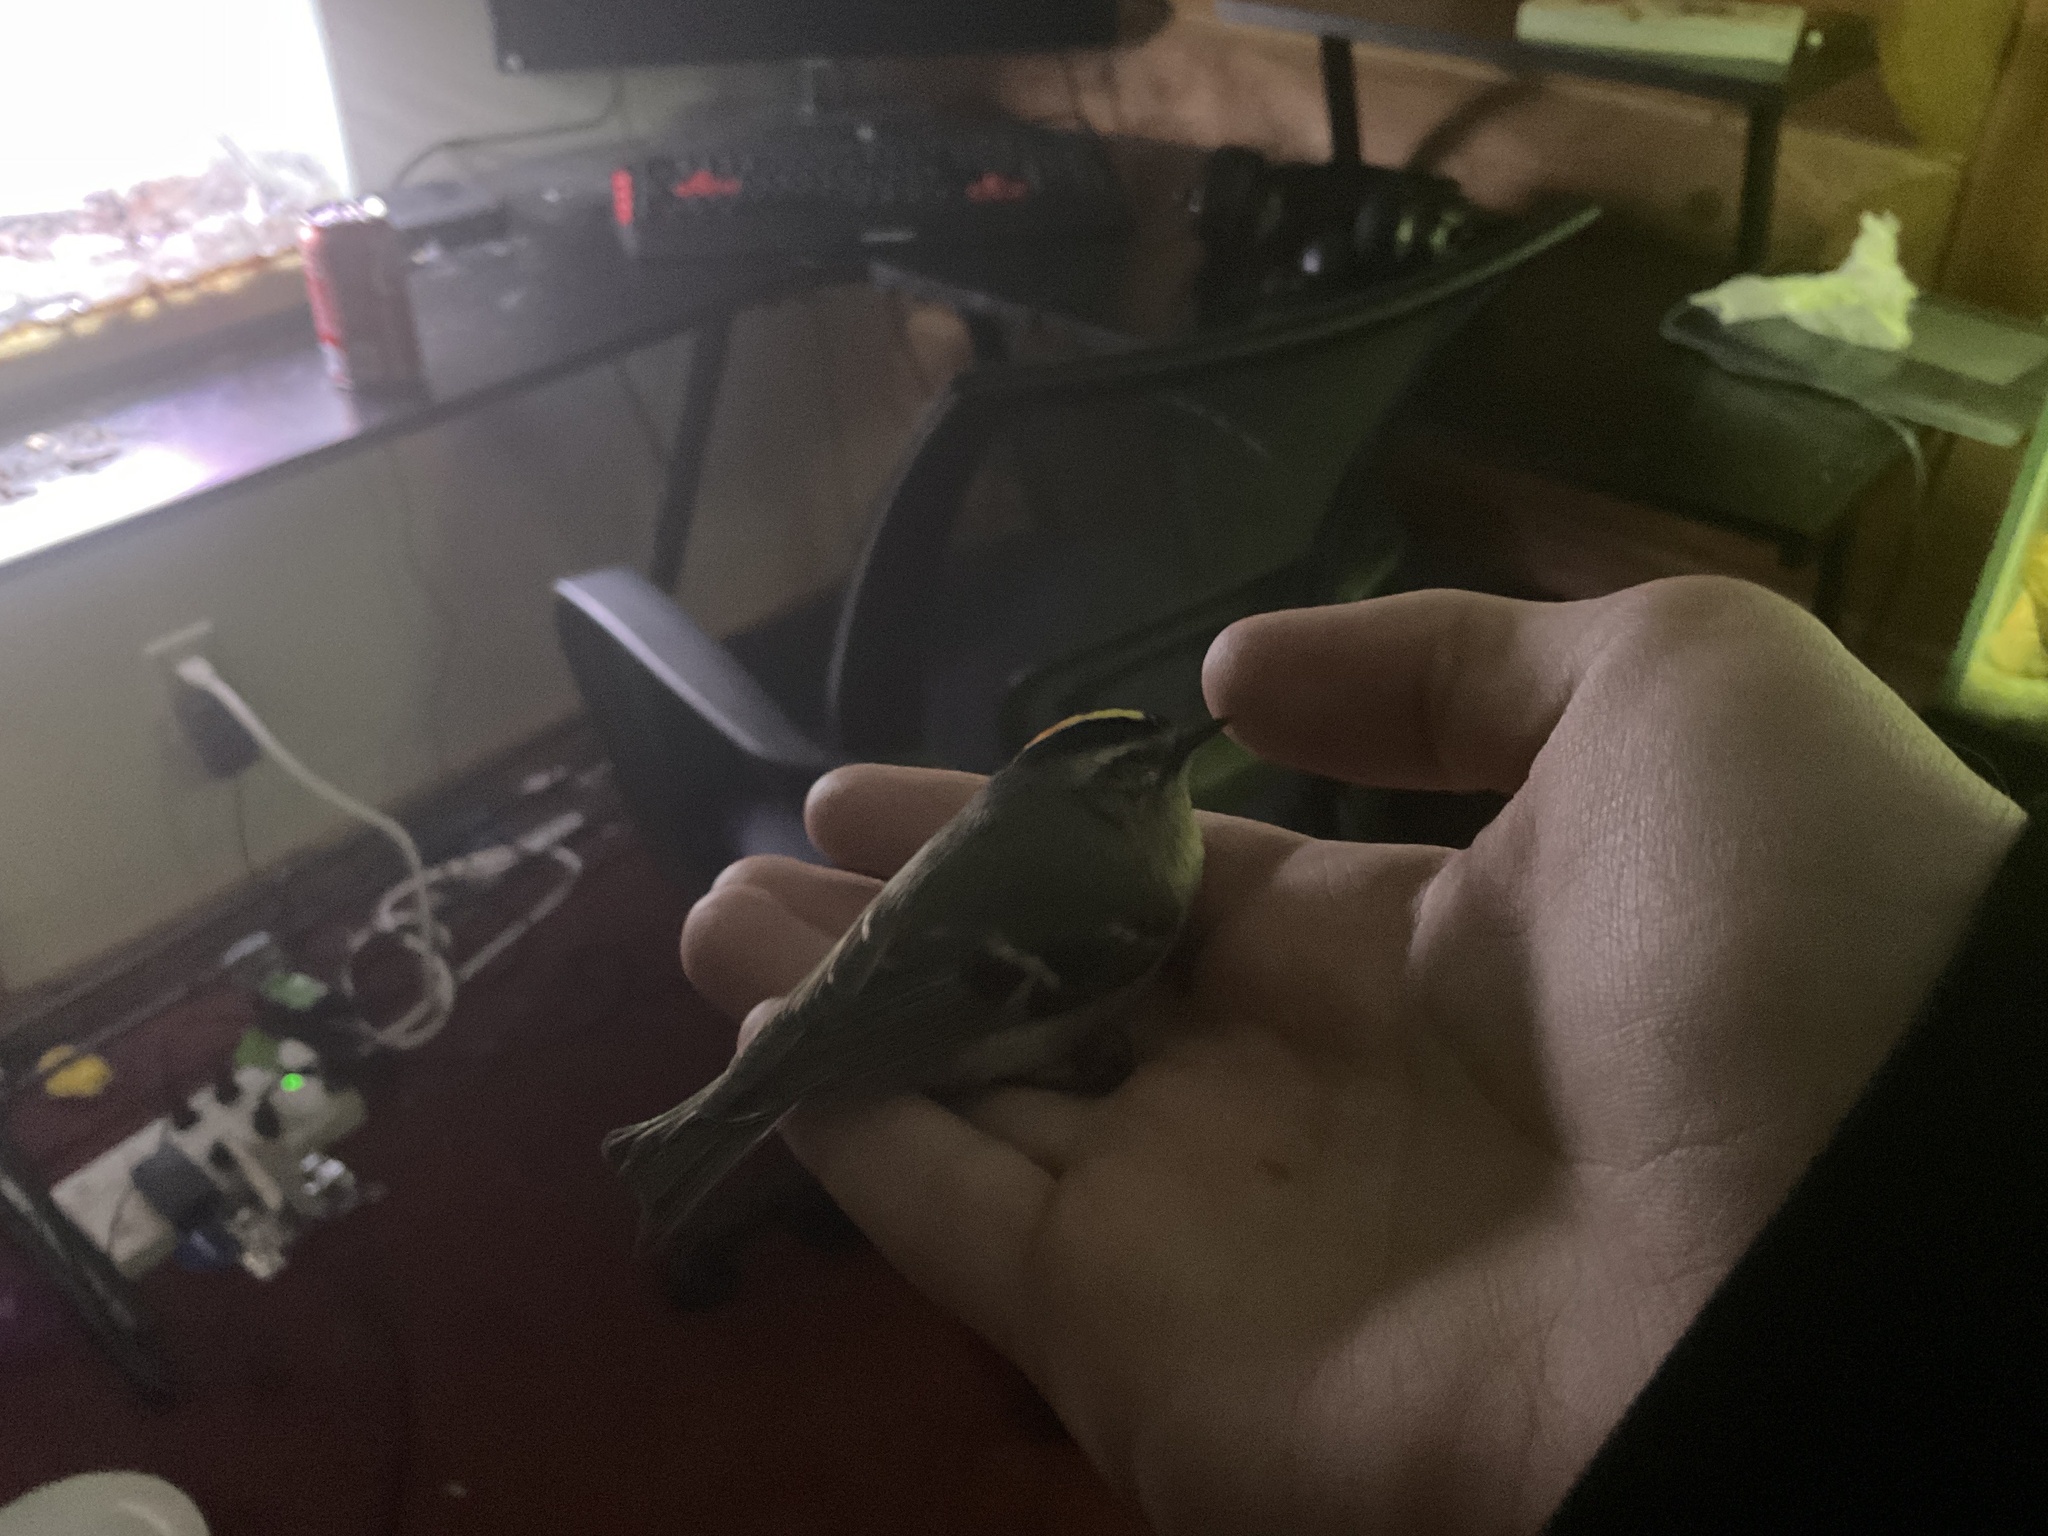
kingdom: Animalia
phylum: Chordata
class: Aves
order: Passeriformes
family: Regulidae
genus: Regulus
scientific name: Regulus satrapa
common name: Golden-crowned kinglet
